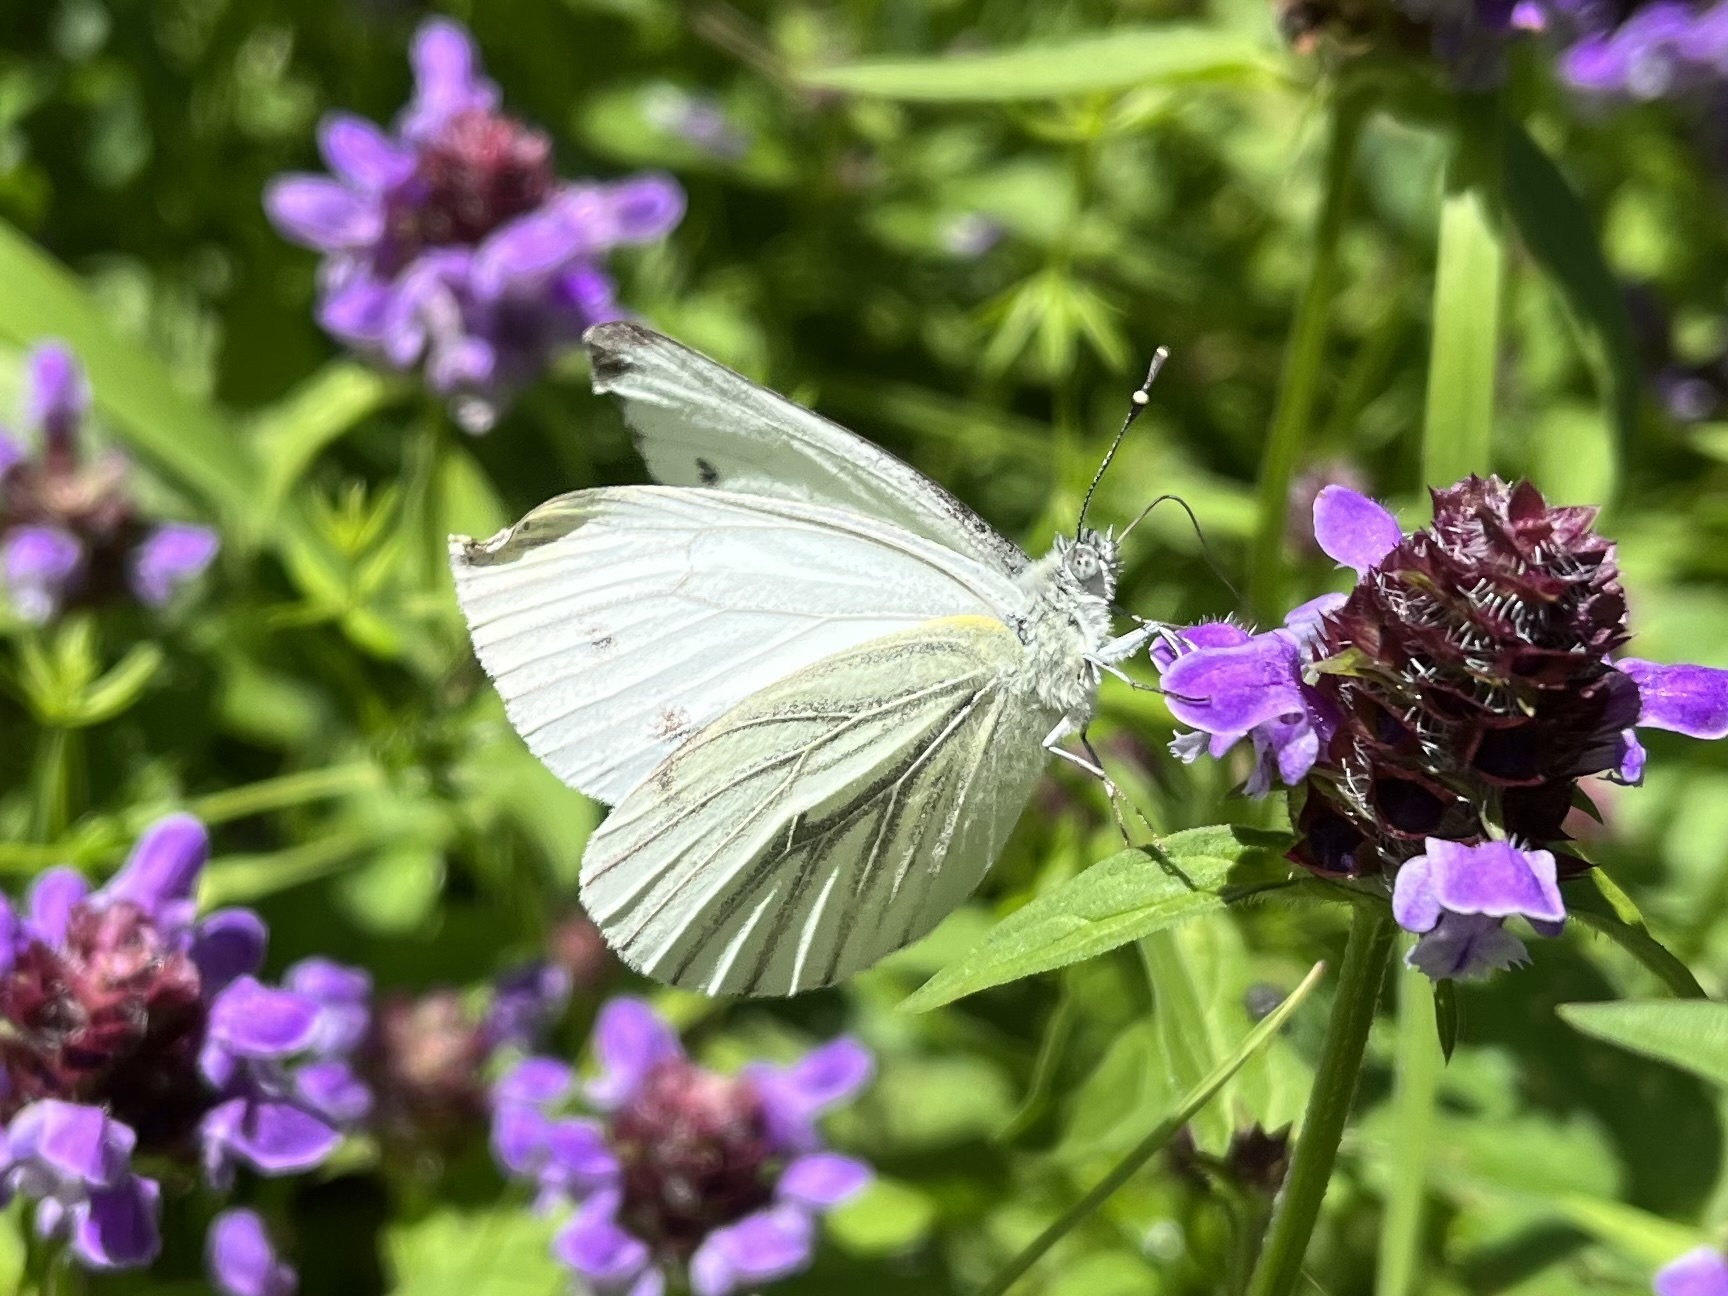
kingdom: Animalia
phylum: Arthropoda
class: Insecta
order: Lepidoptera
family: Pieridae
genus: Pieris
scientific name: Pieris napi
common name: Green-veined white
